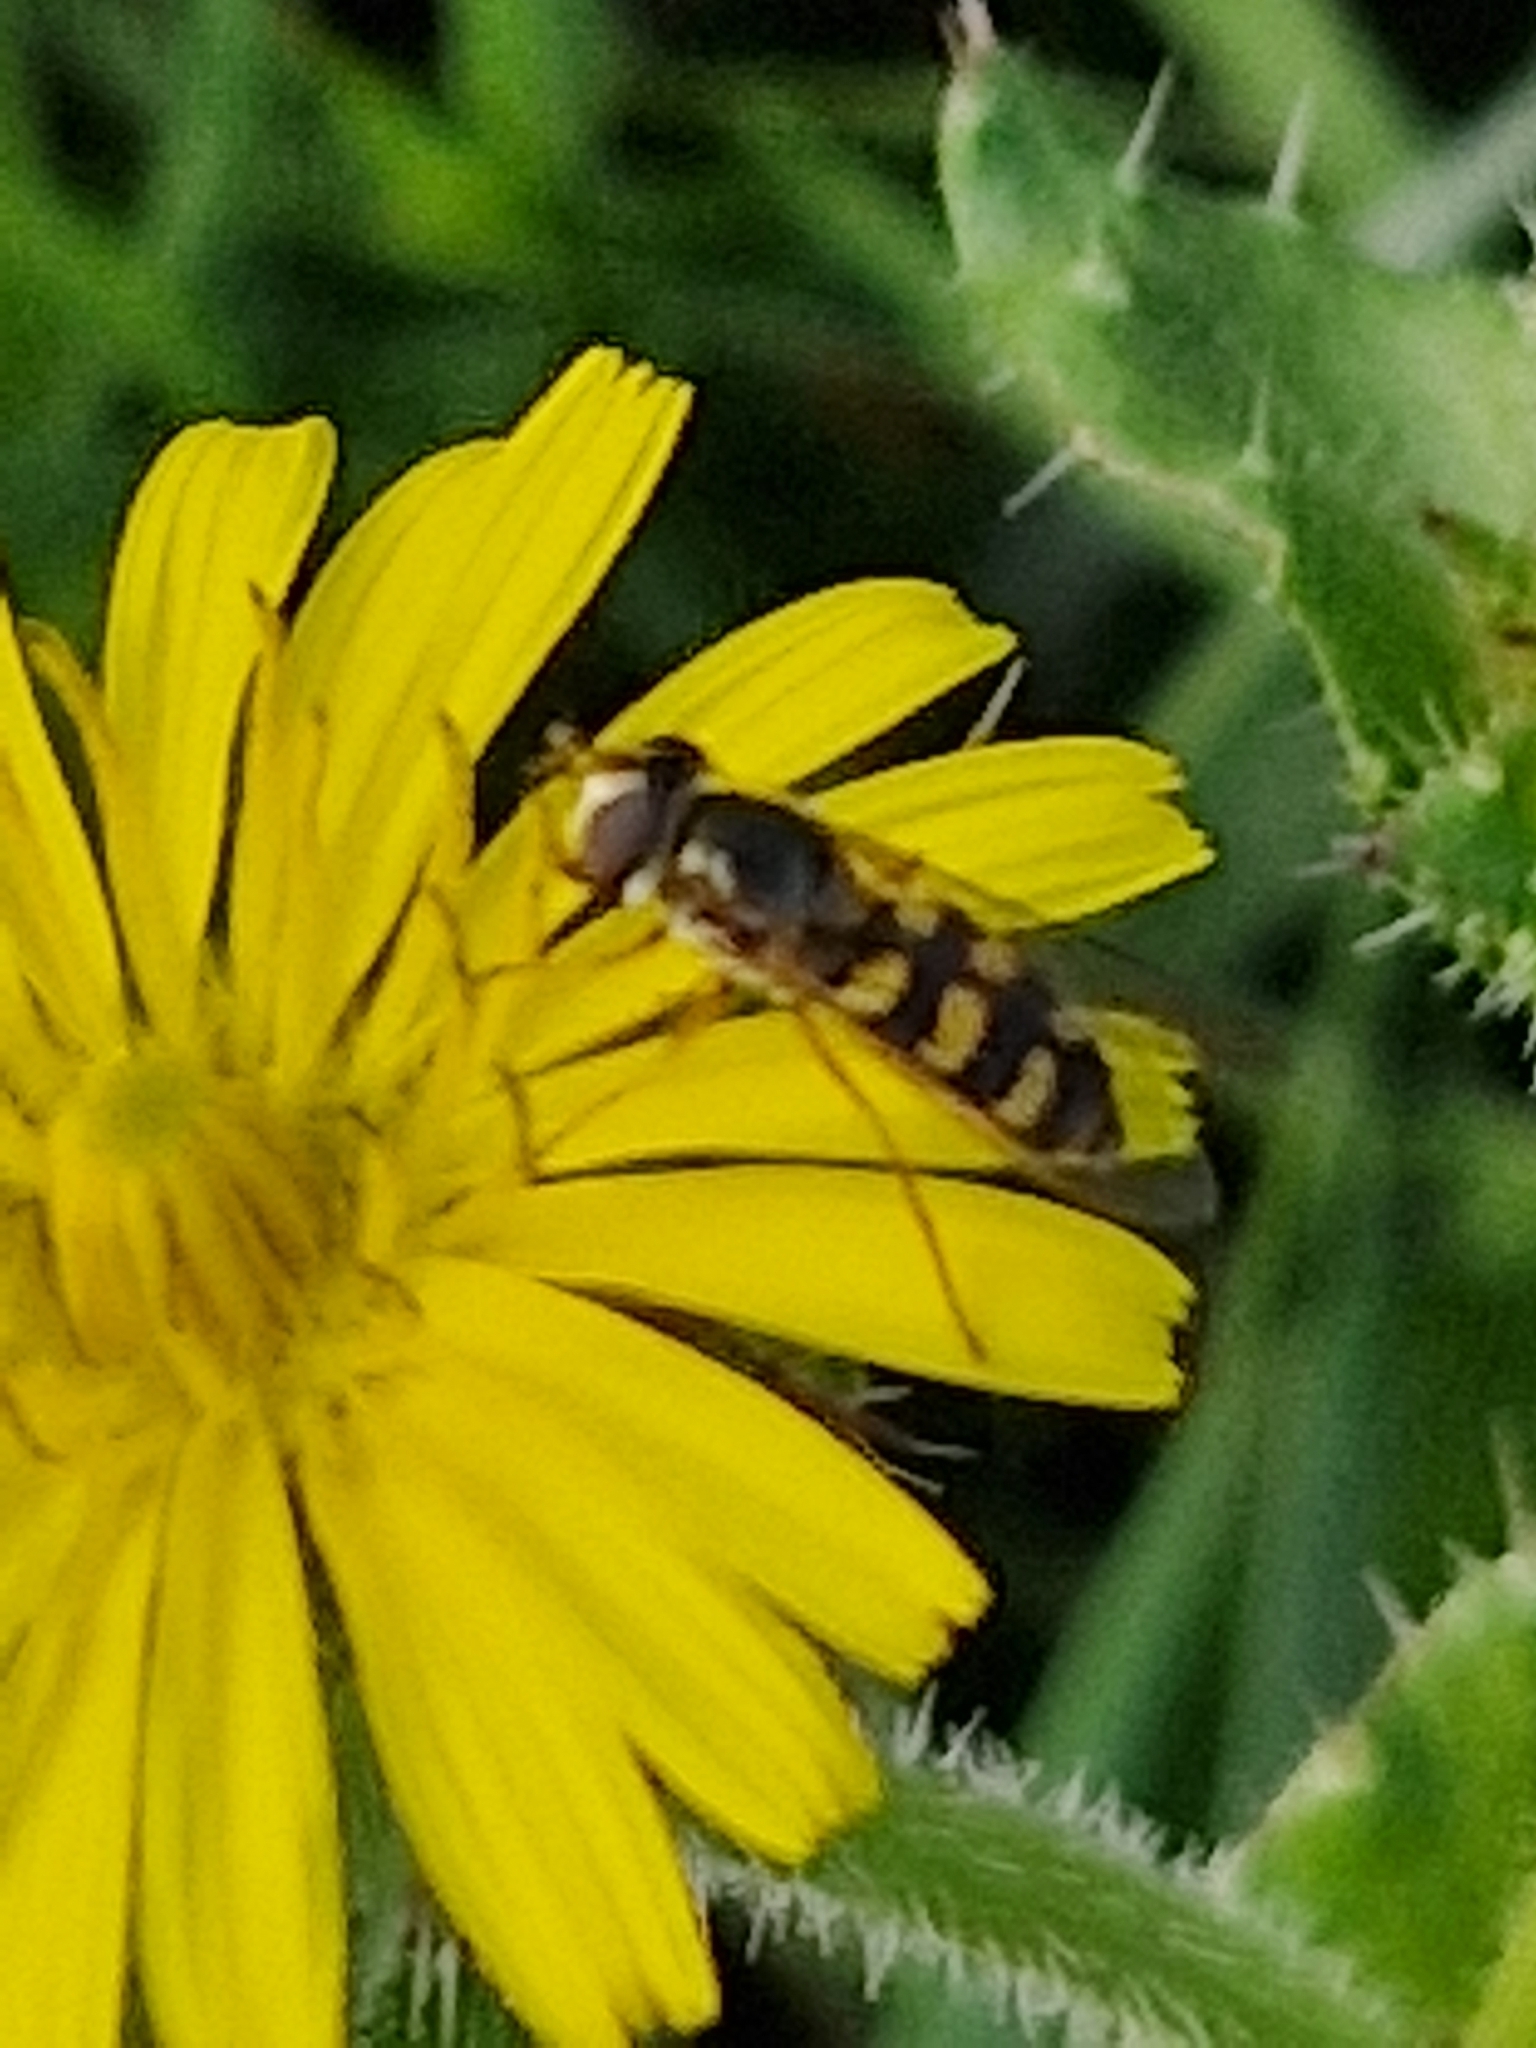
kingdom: Animalia
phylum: Arthropoda
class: Insecta
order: Diptera
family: Syrphidae
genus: Eupeodes
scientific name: Eupeodes corollae
